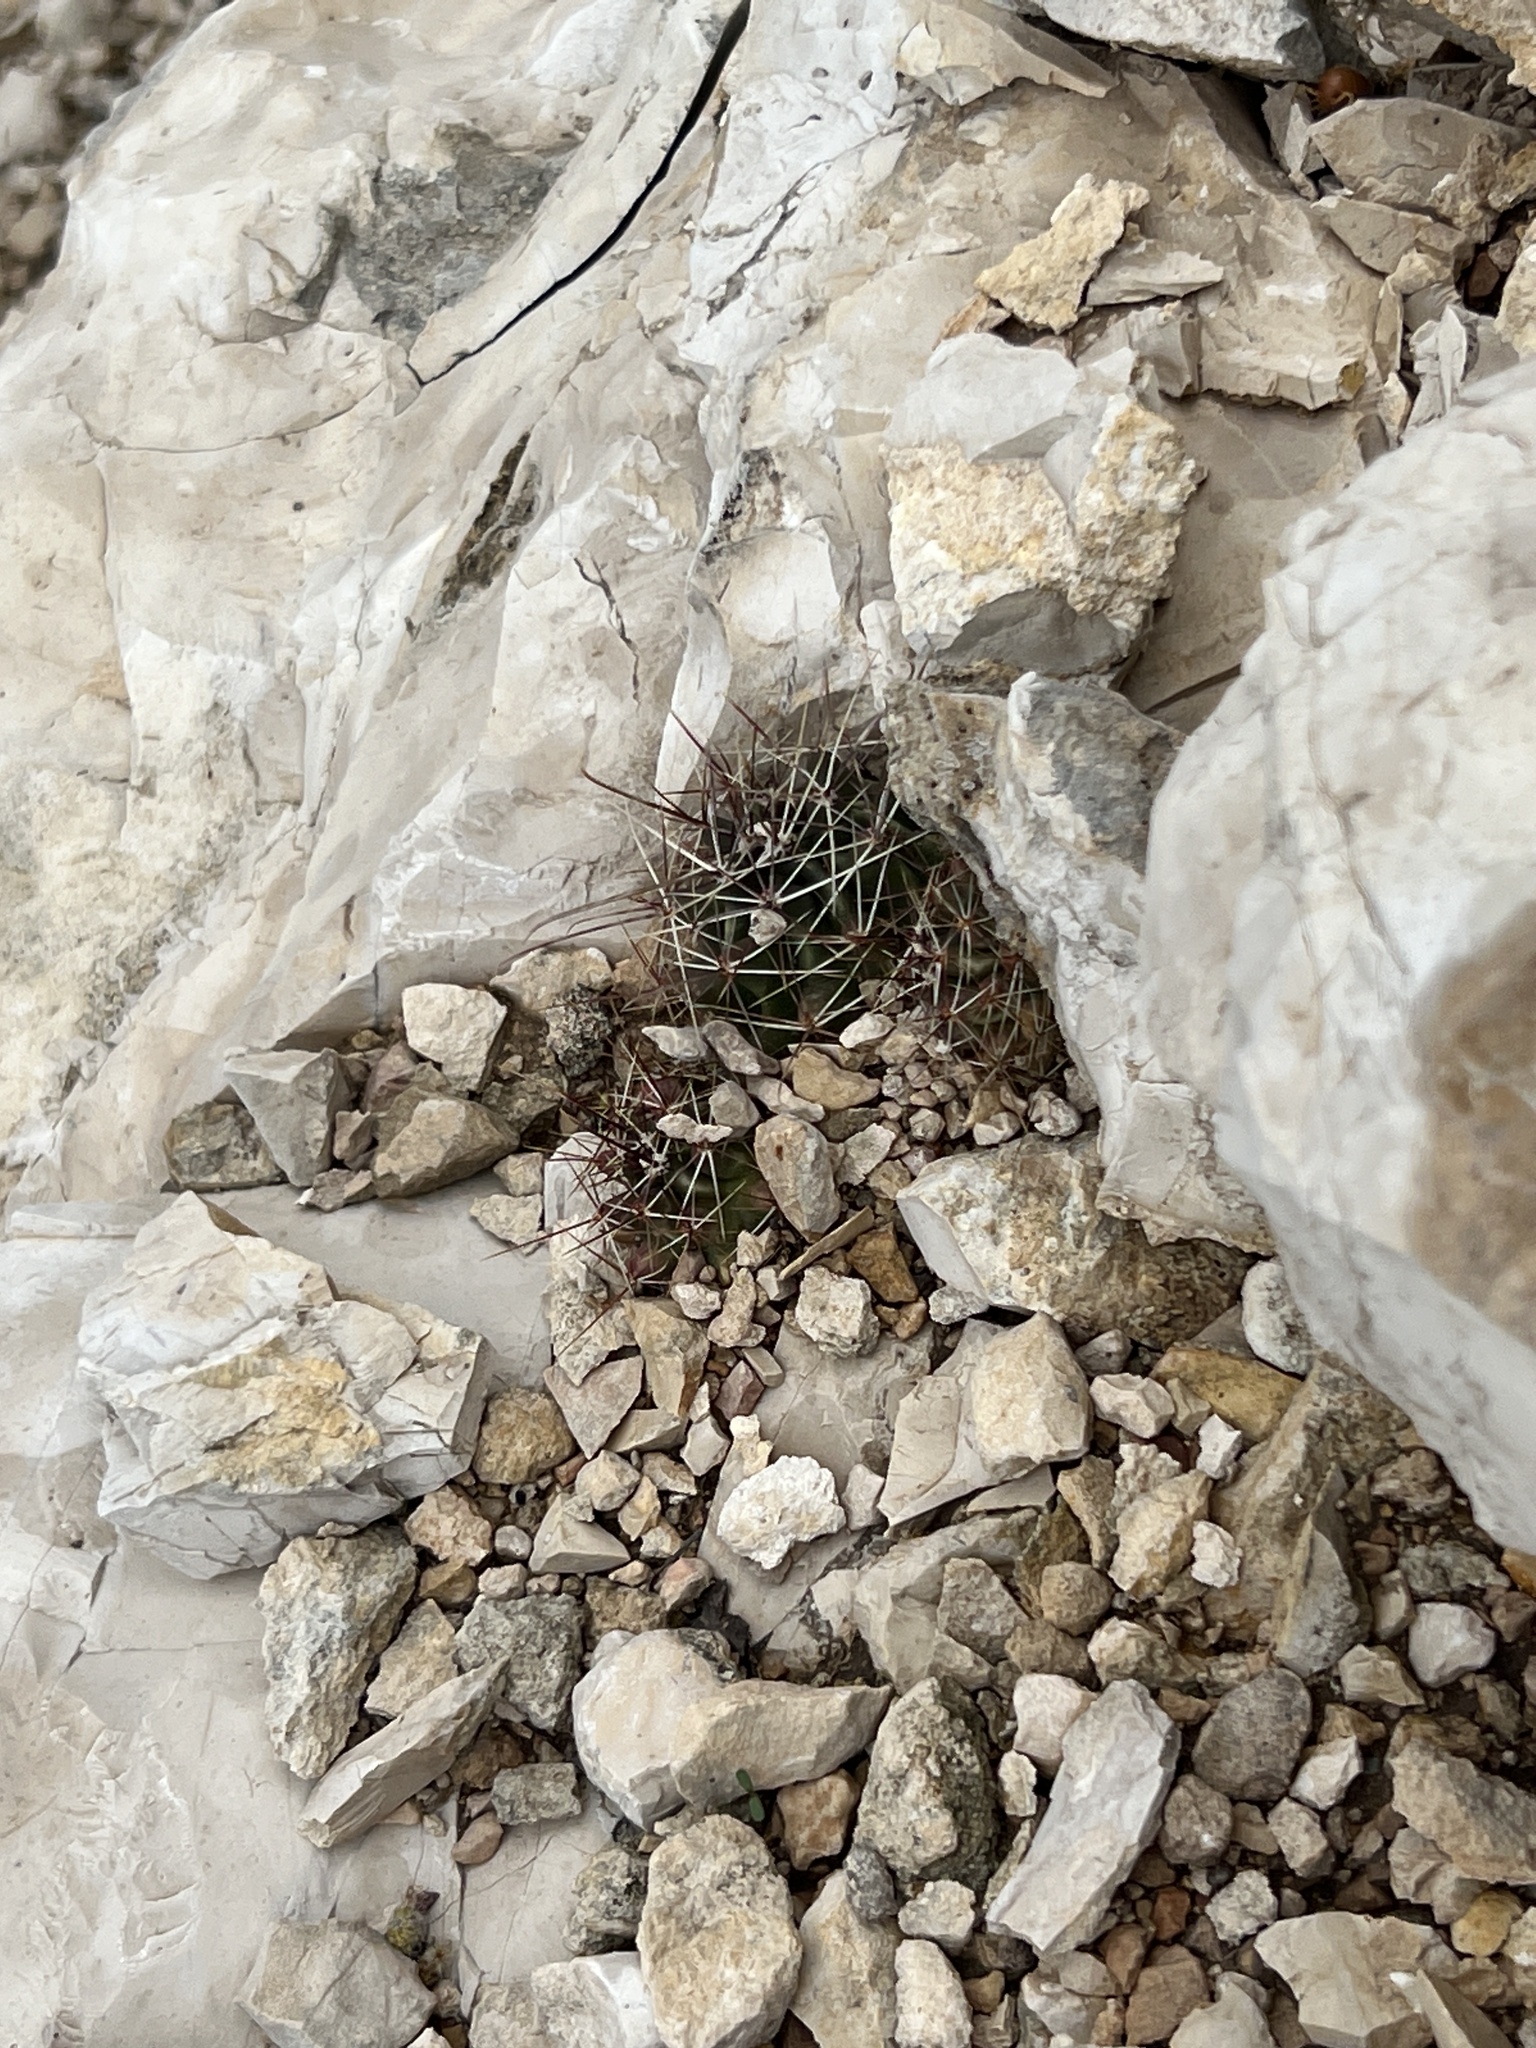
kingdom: Plantae
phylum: Tracheophyta
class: Magnoliopsida
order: Caryophyllales
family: Cactaceae
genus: Bisnaga
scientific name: Bisnaga hamatacantha
